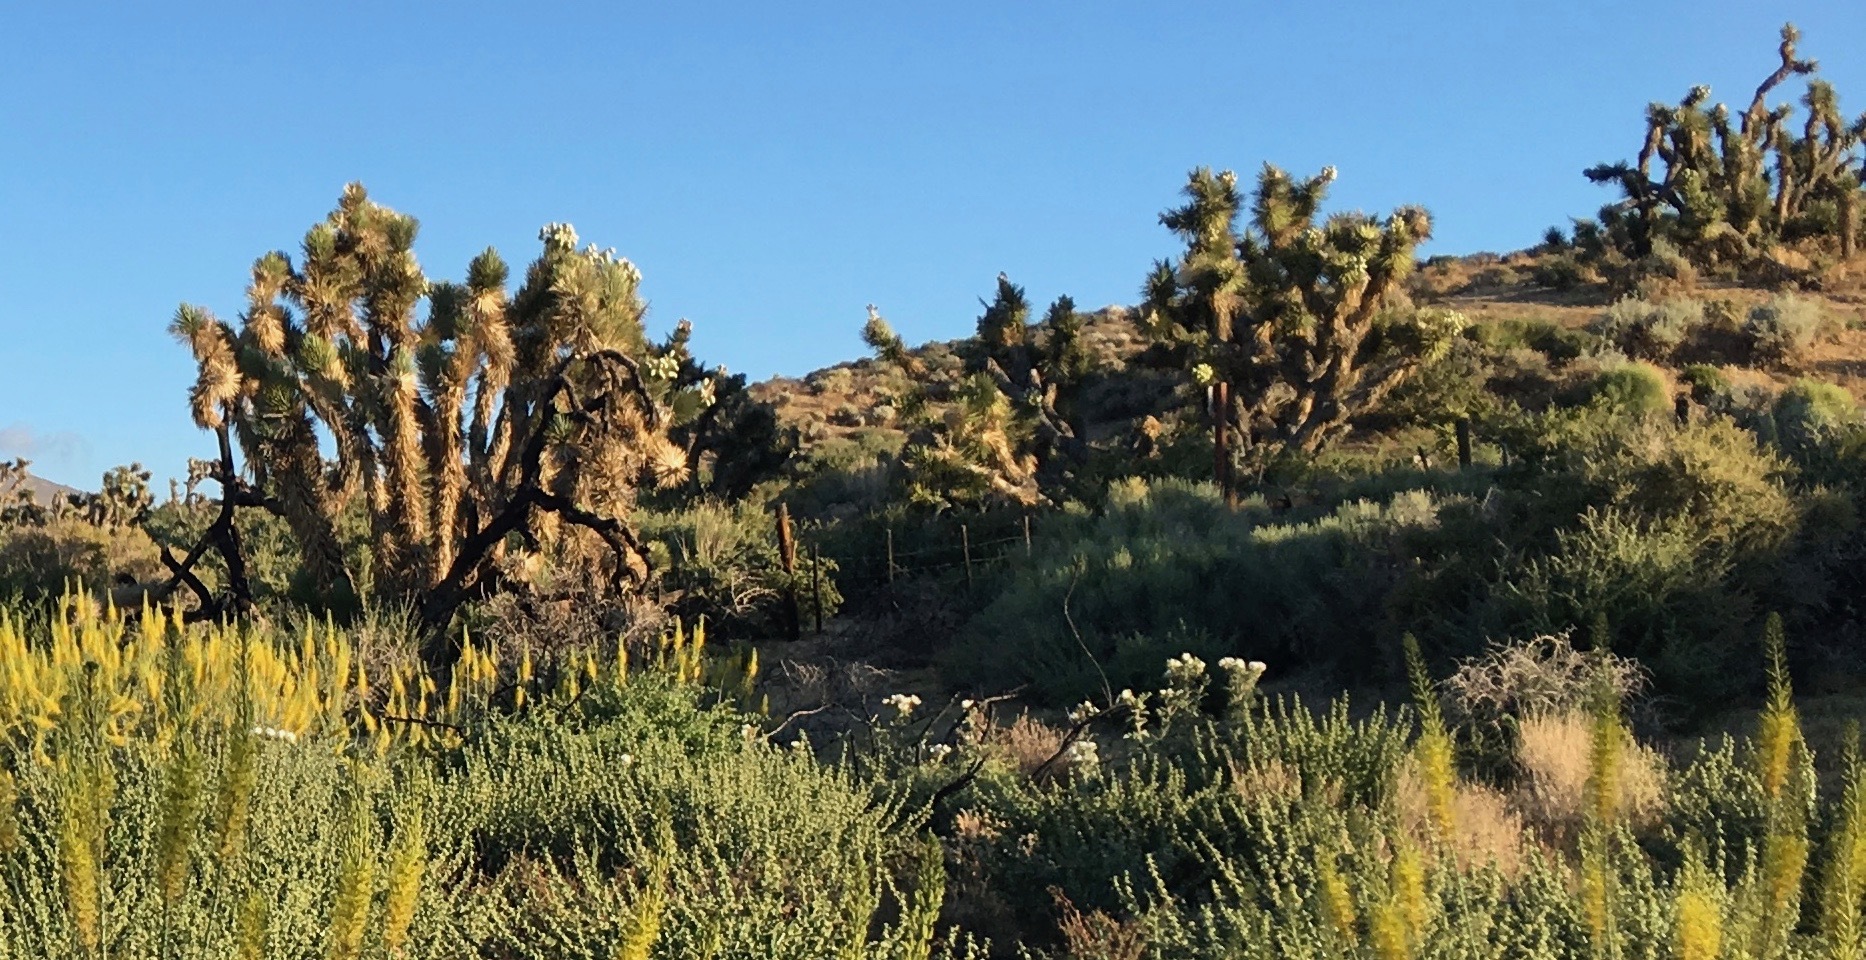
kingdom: Plantae
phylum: Tracheophyta
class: Liliopsida
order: Asparagales
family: Asparagaceae
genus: Yucca
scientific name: Yucca brevifolia
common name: Joshua tree
